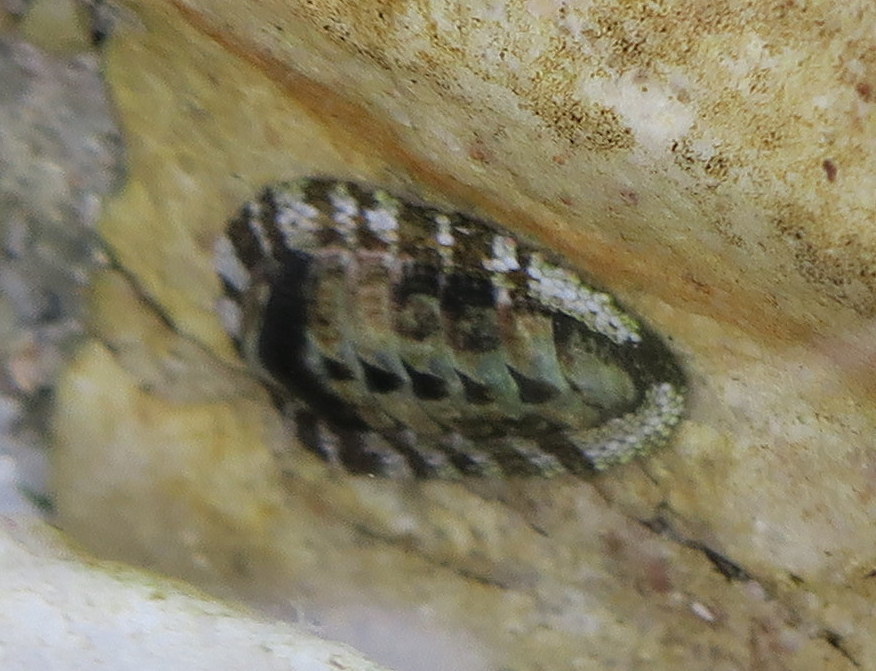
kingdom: Animalia
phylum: Mollusca
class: Polyplacophora
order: Chitonida
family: Chitonidae
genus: Sypharochiton
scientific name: Sypharochiton pelliserpentis
